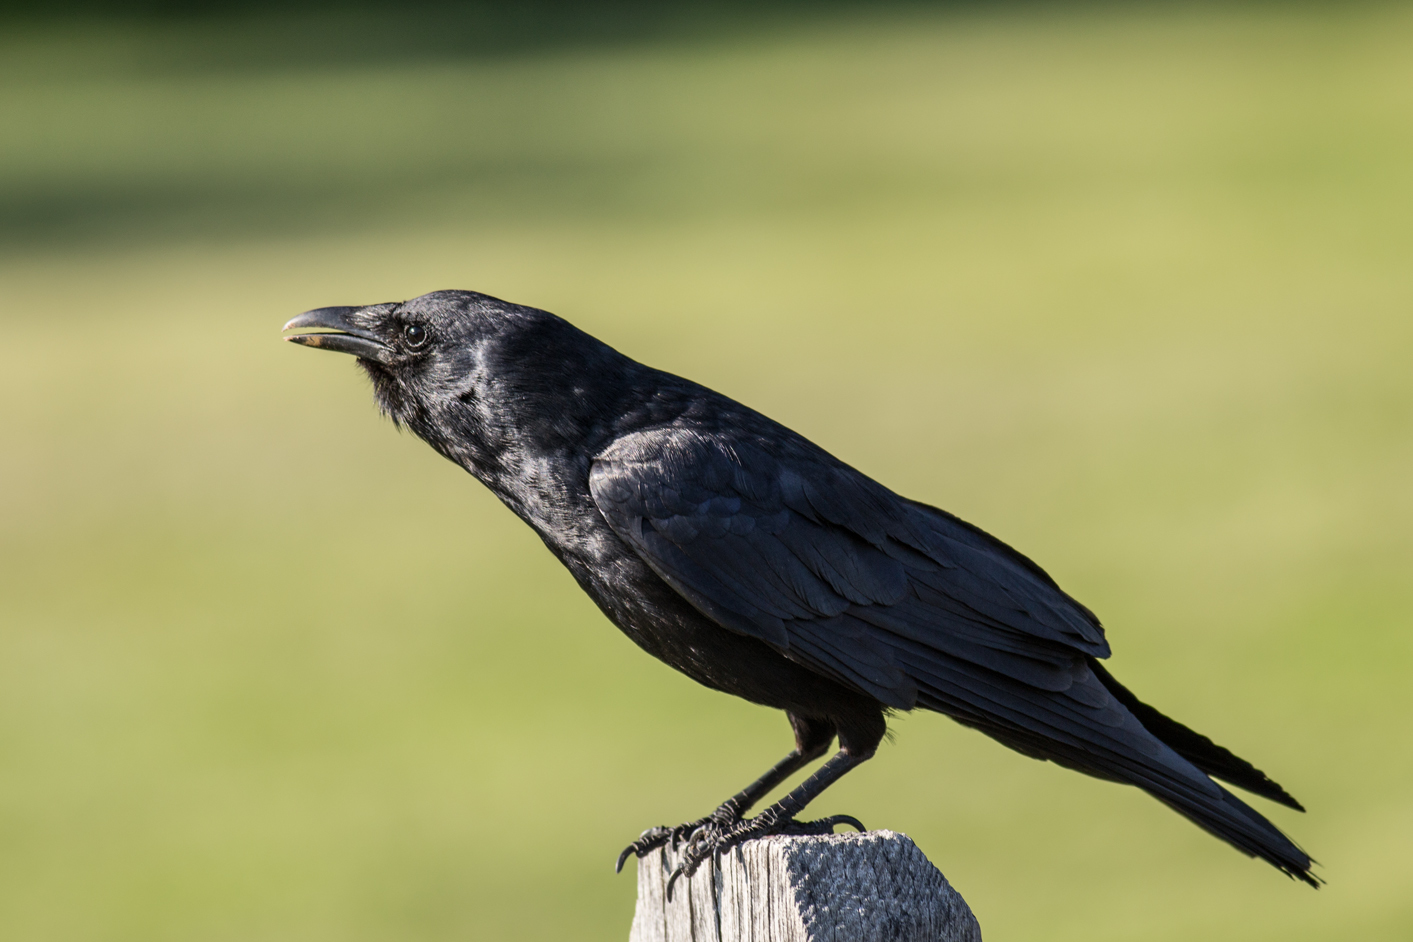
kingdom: Animalia
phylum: Chordata
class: Aves
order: Passeriformes
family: Corvidae
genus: Corvus
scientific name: Corvus ossifragus
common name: Fish crow
